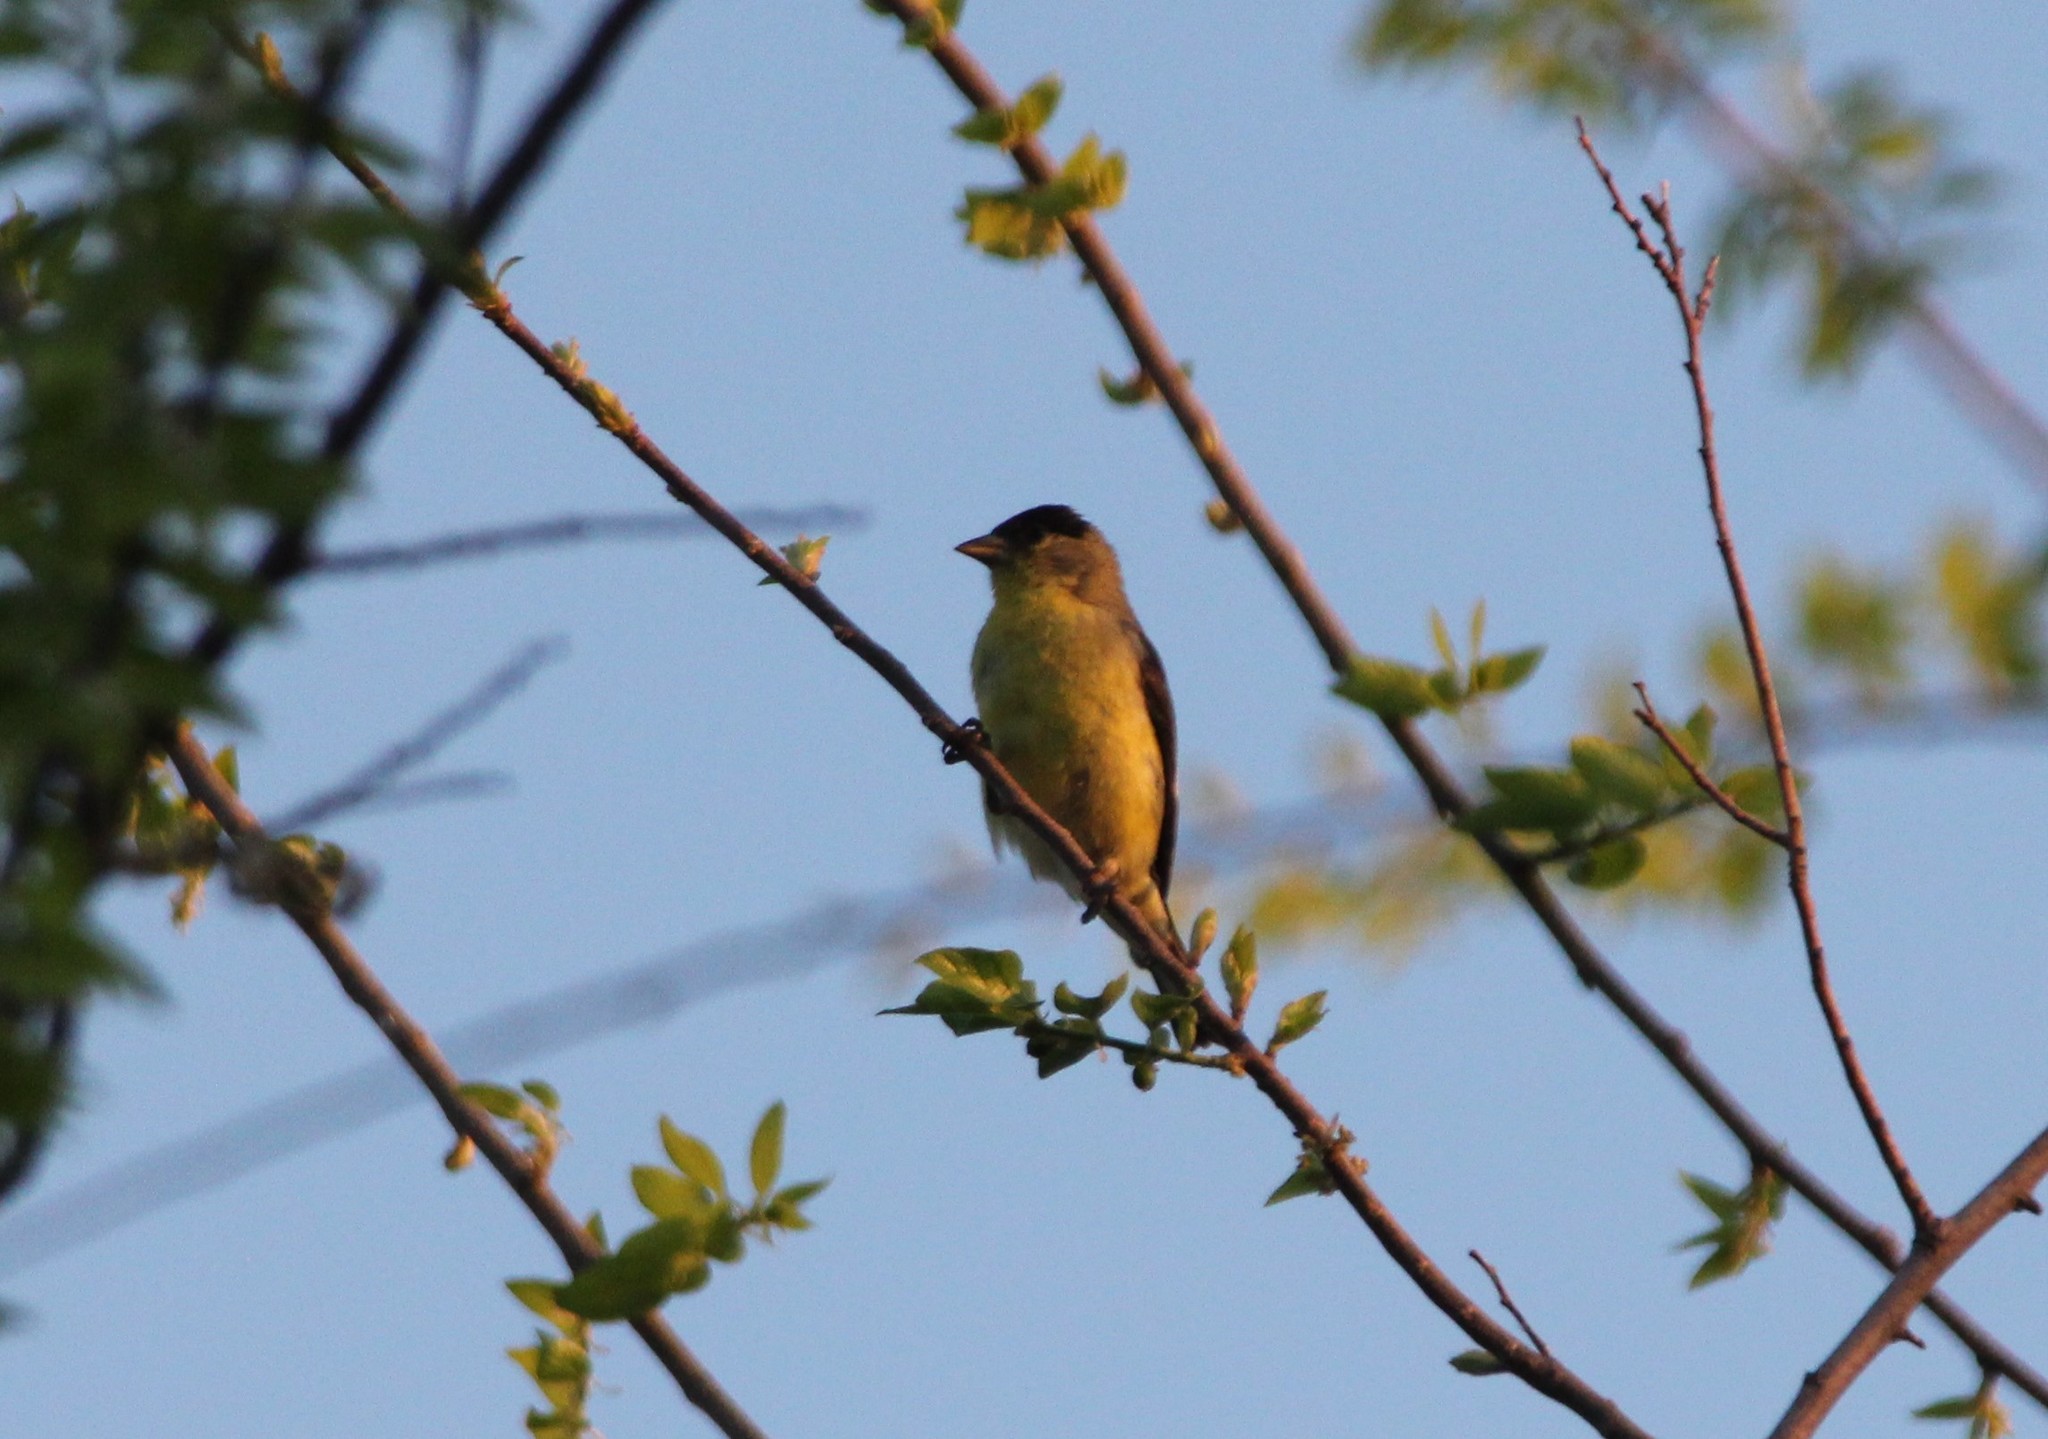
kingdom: Animalia
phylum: Chordata
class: Aves
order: Passeriformes
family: Fringillidae
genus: Spinus
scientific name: Spinus psaltria
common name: Lesser goldfinch
